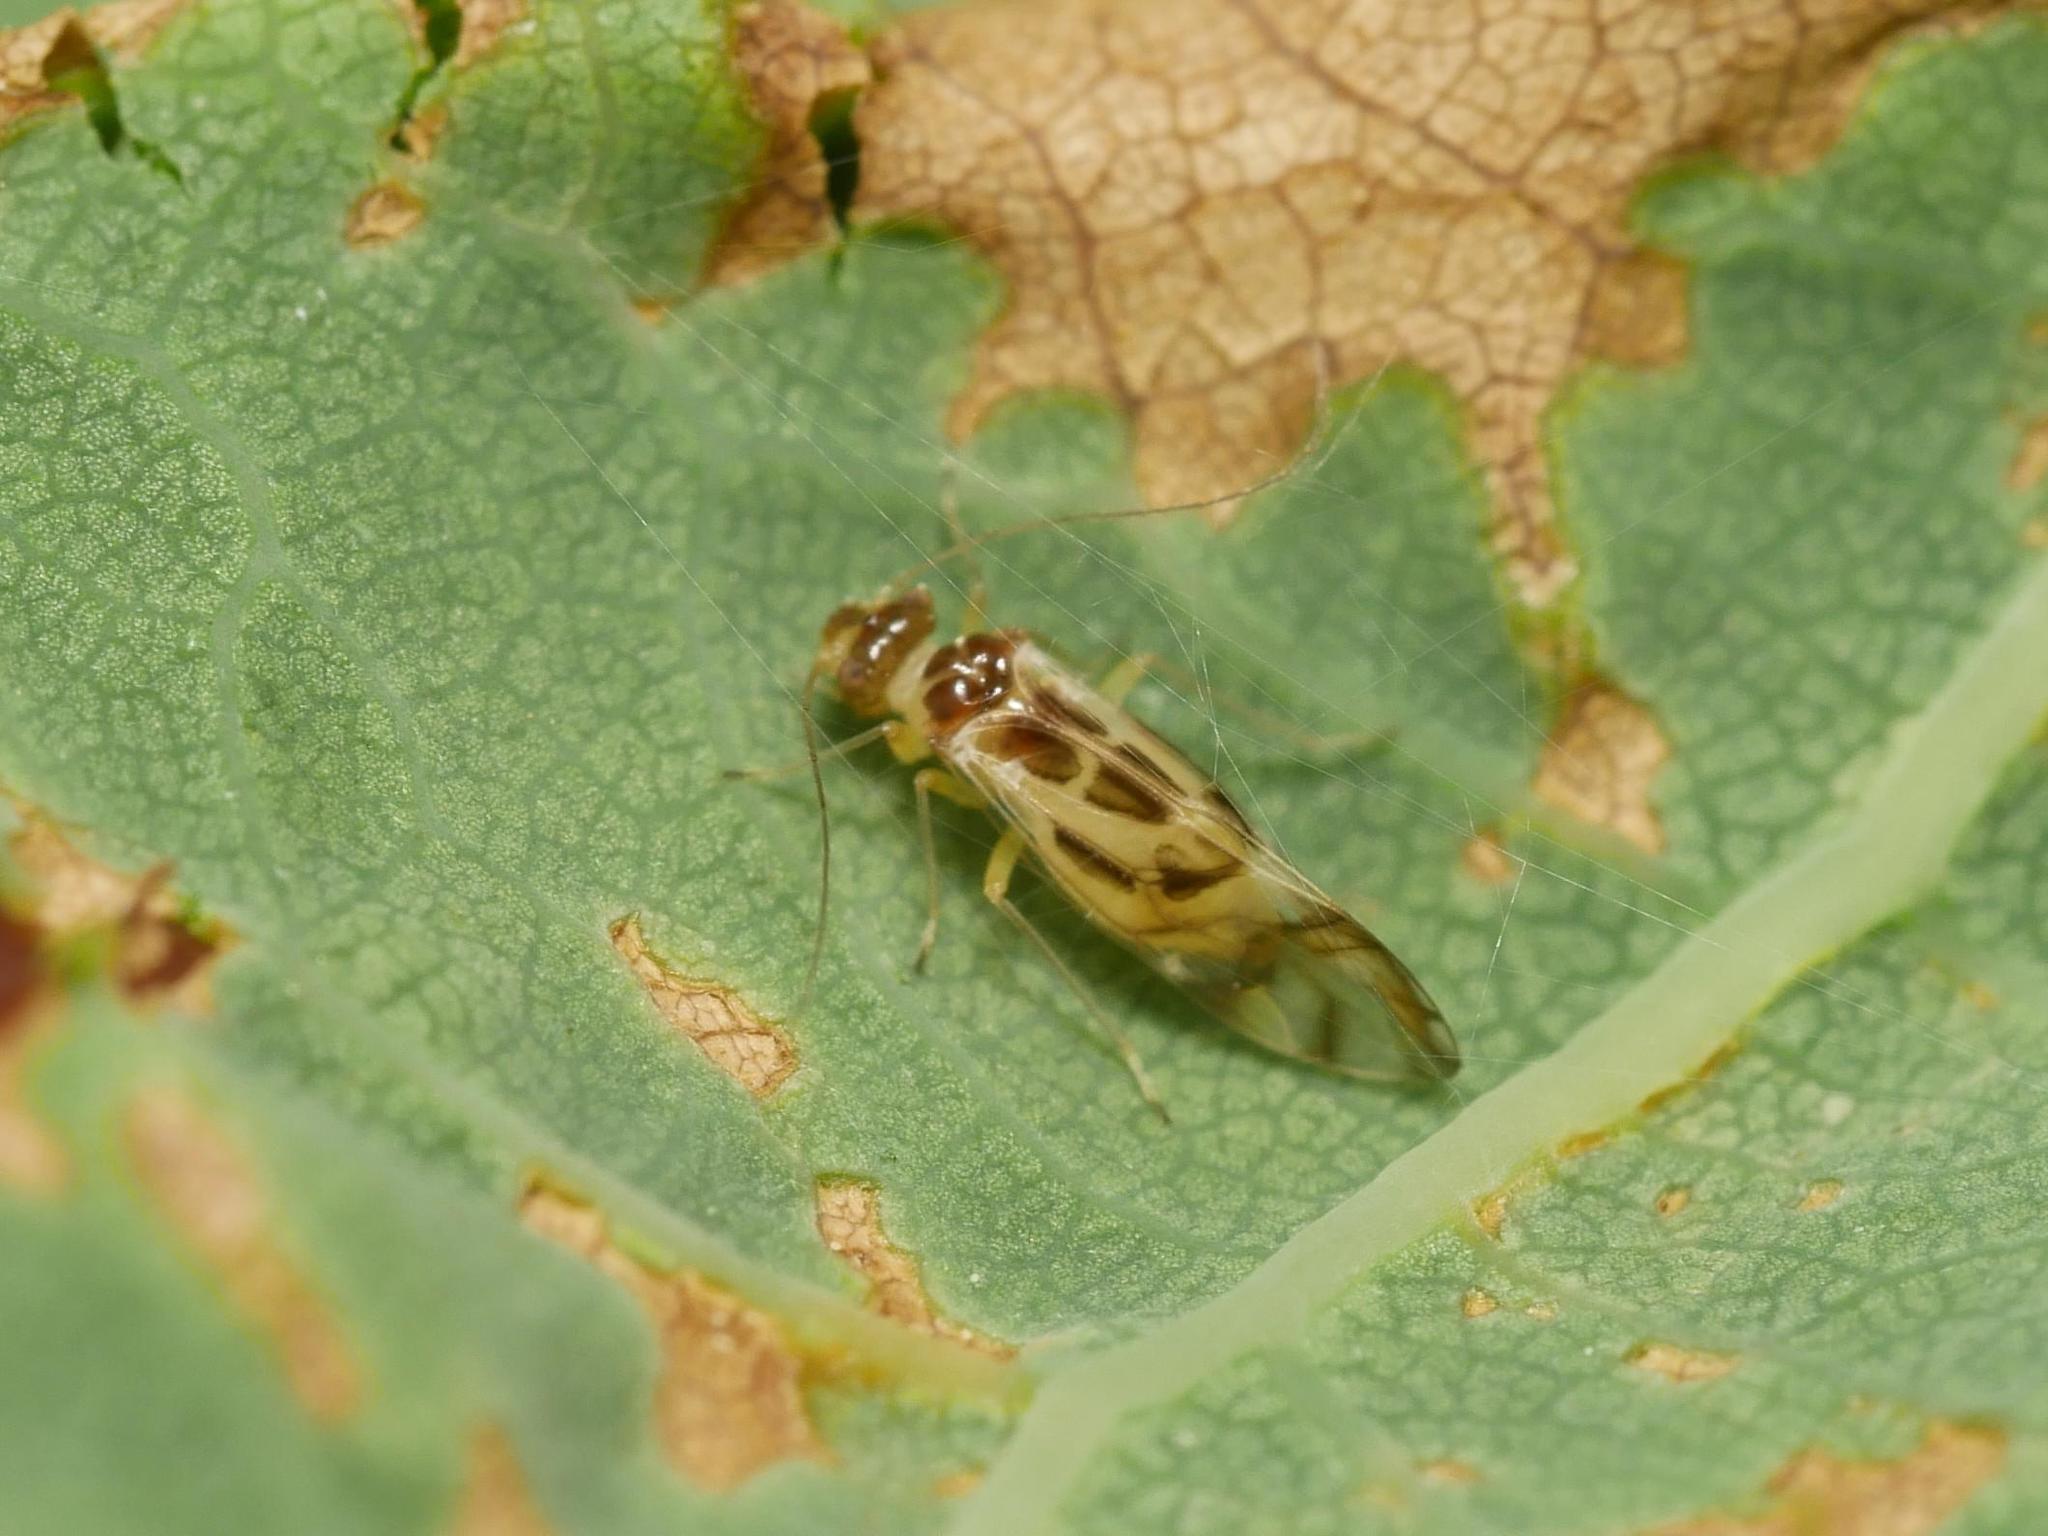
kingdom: Animalia
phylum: Arthropoda
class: Insecta
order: Psocodea
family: Stenopsocidae
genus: Graphopsocus
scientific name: Graphopsocus cruciatus
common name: Lizard bark louse
